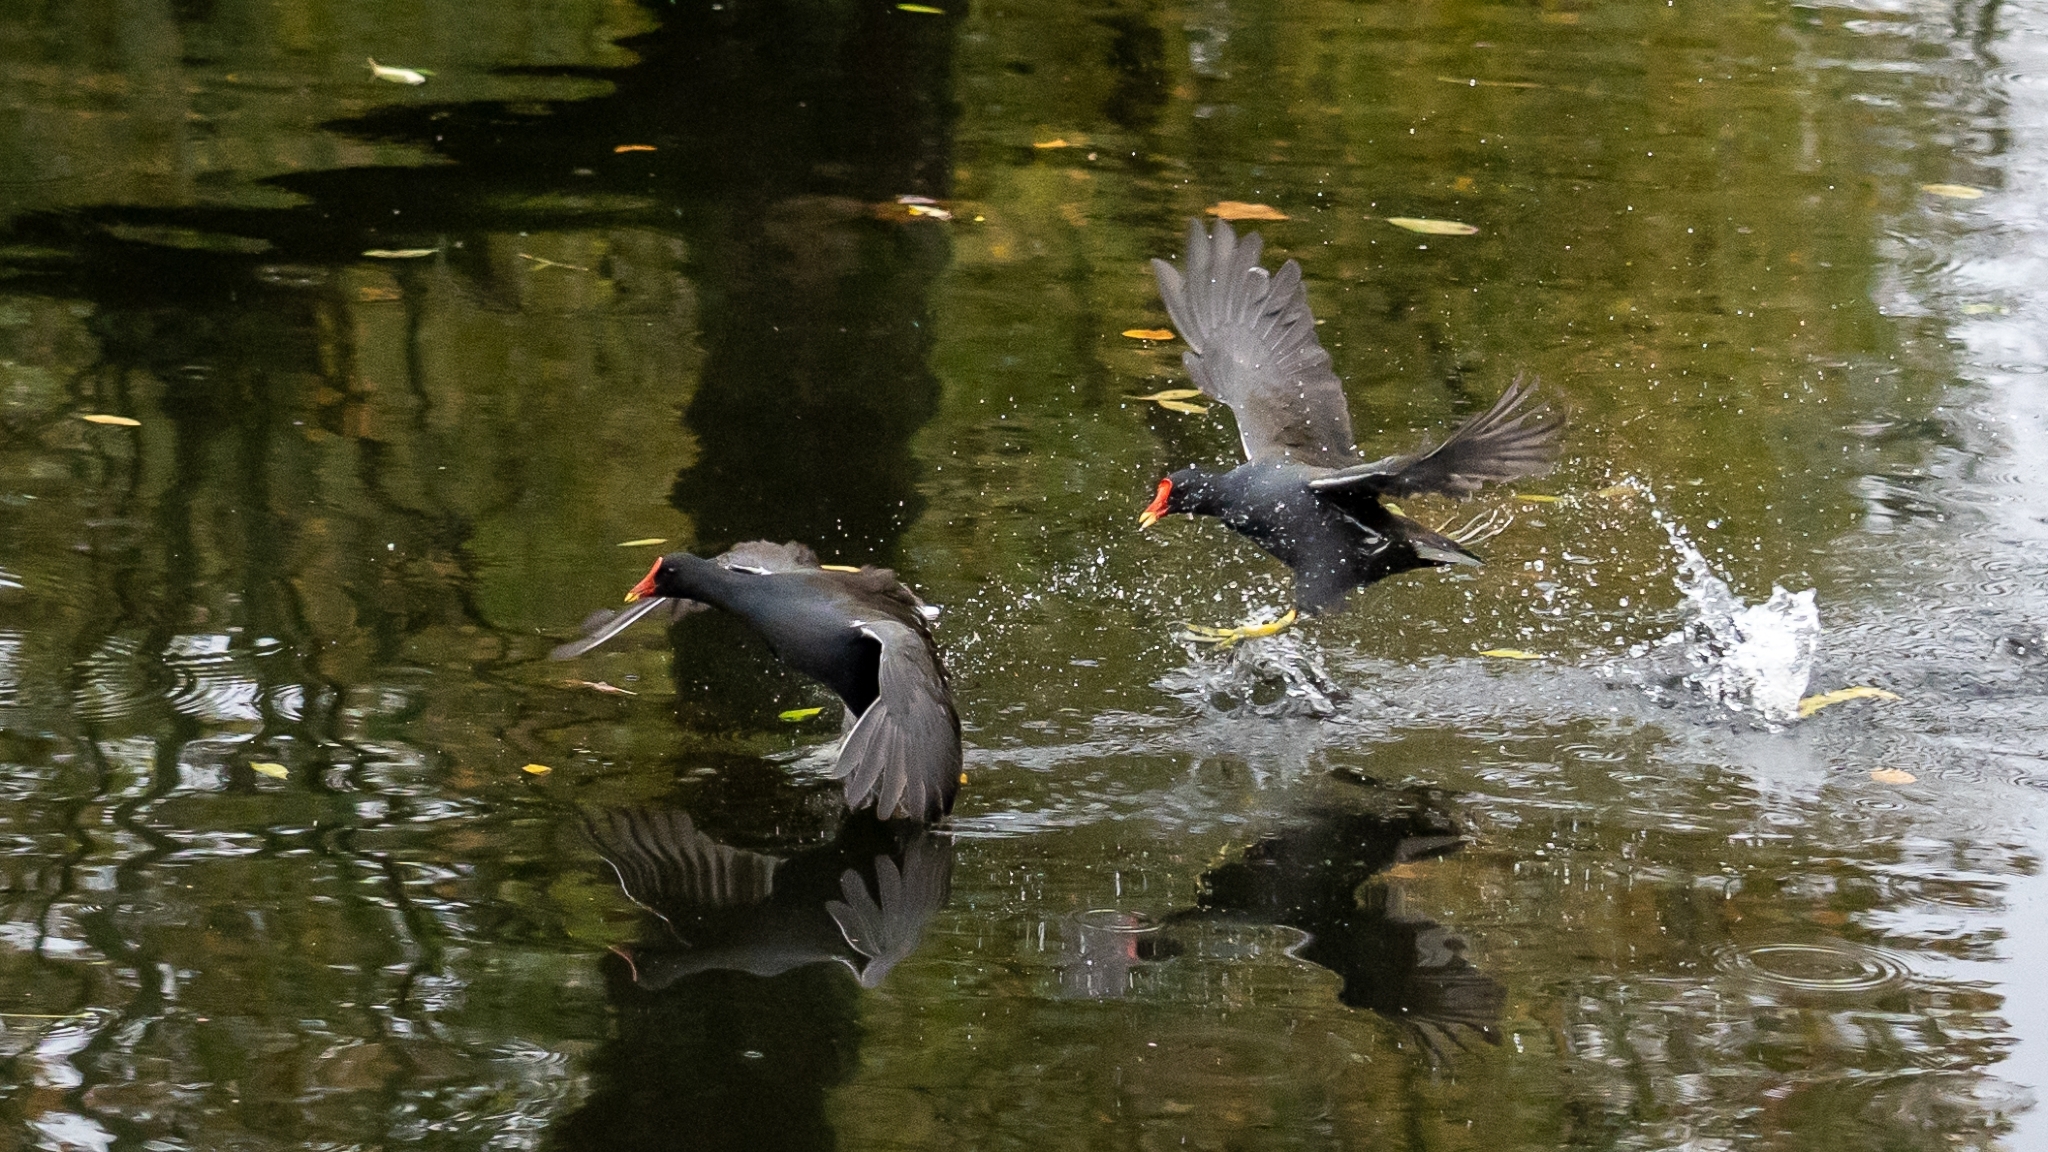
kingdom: Animalia
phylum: Chordata
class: Aves
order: Gruiformes
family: Rallidae
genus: Gallinula
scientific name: Gallinula chloropus
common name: Common moorhen
